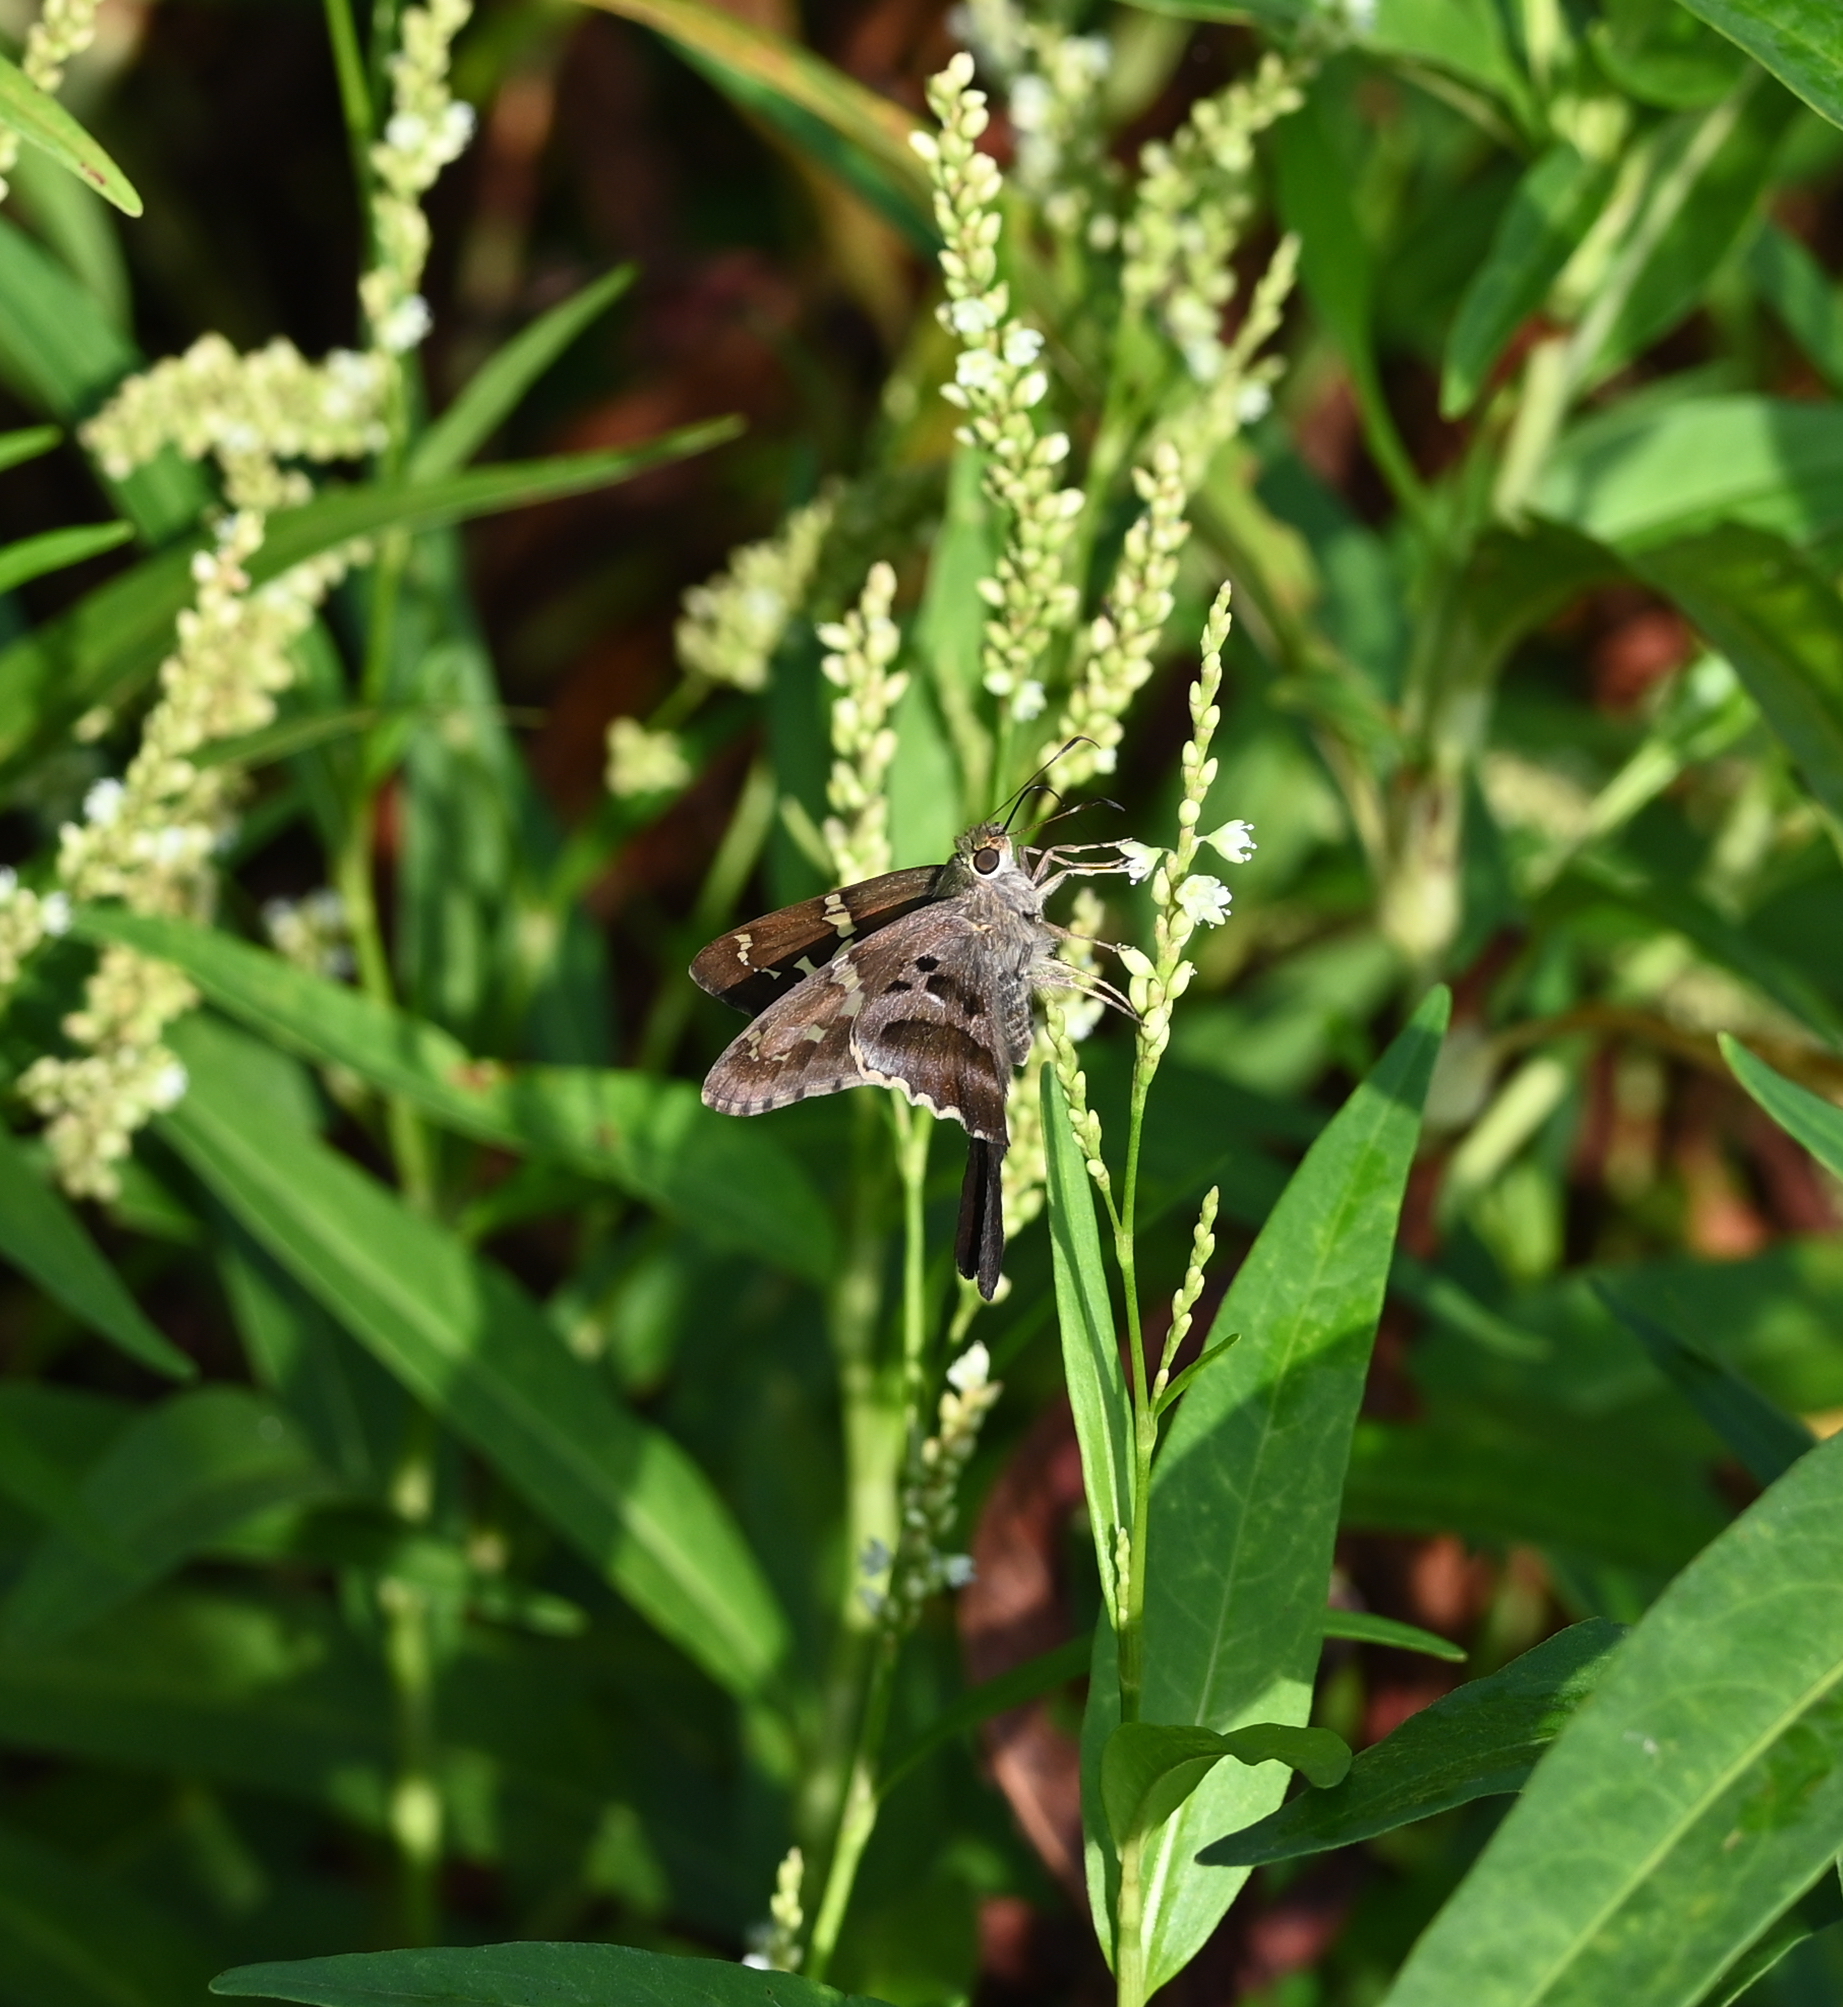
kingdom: Animalia
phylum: Arthropoda
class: Insecta
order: Lepidoptera
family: Hesperiidae
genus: Urbanus
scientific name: Urbanus proteus
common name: Long-tailed skipper
